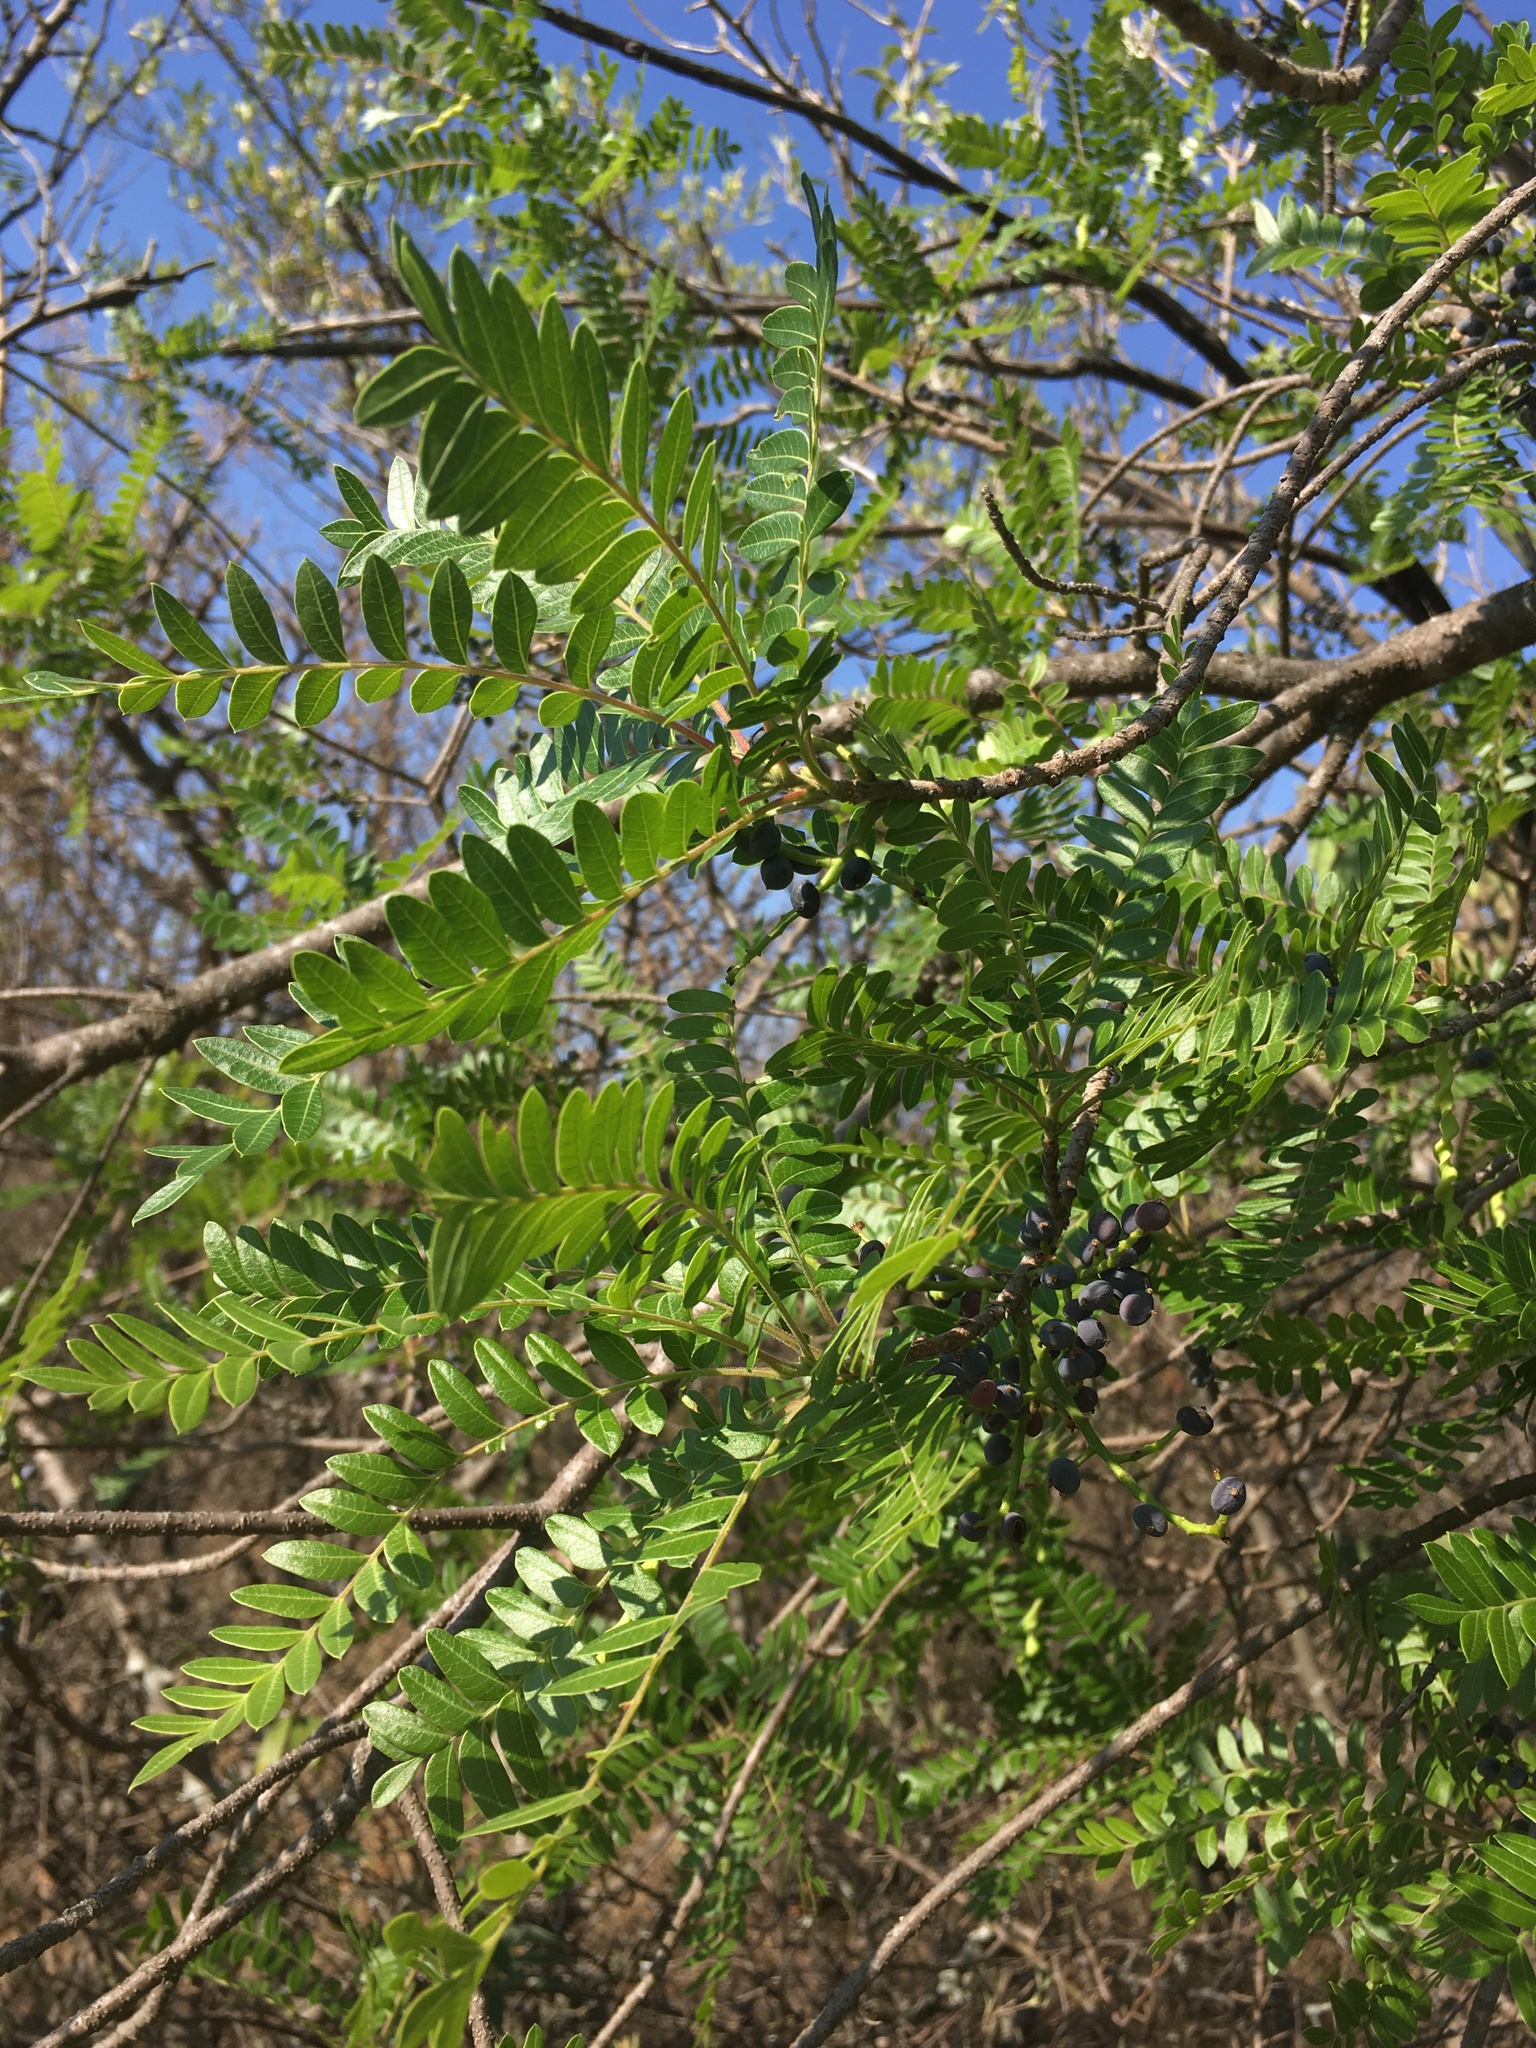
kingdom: Plantae
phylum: Tracheophyta
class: Magnoliopsida
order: Sapindales
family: Anacardiaceae
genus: Pistacia
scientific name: Pistacia mexicana
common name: Mexican pistachio
